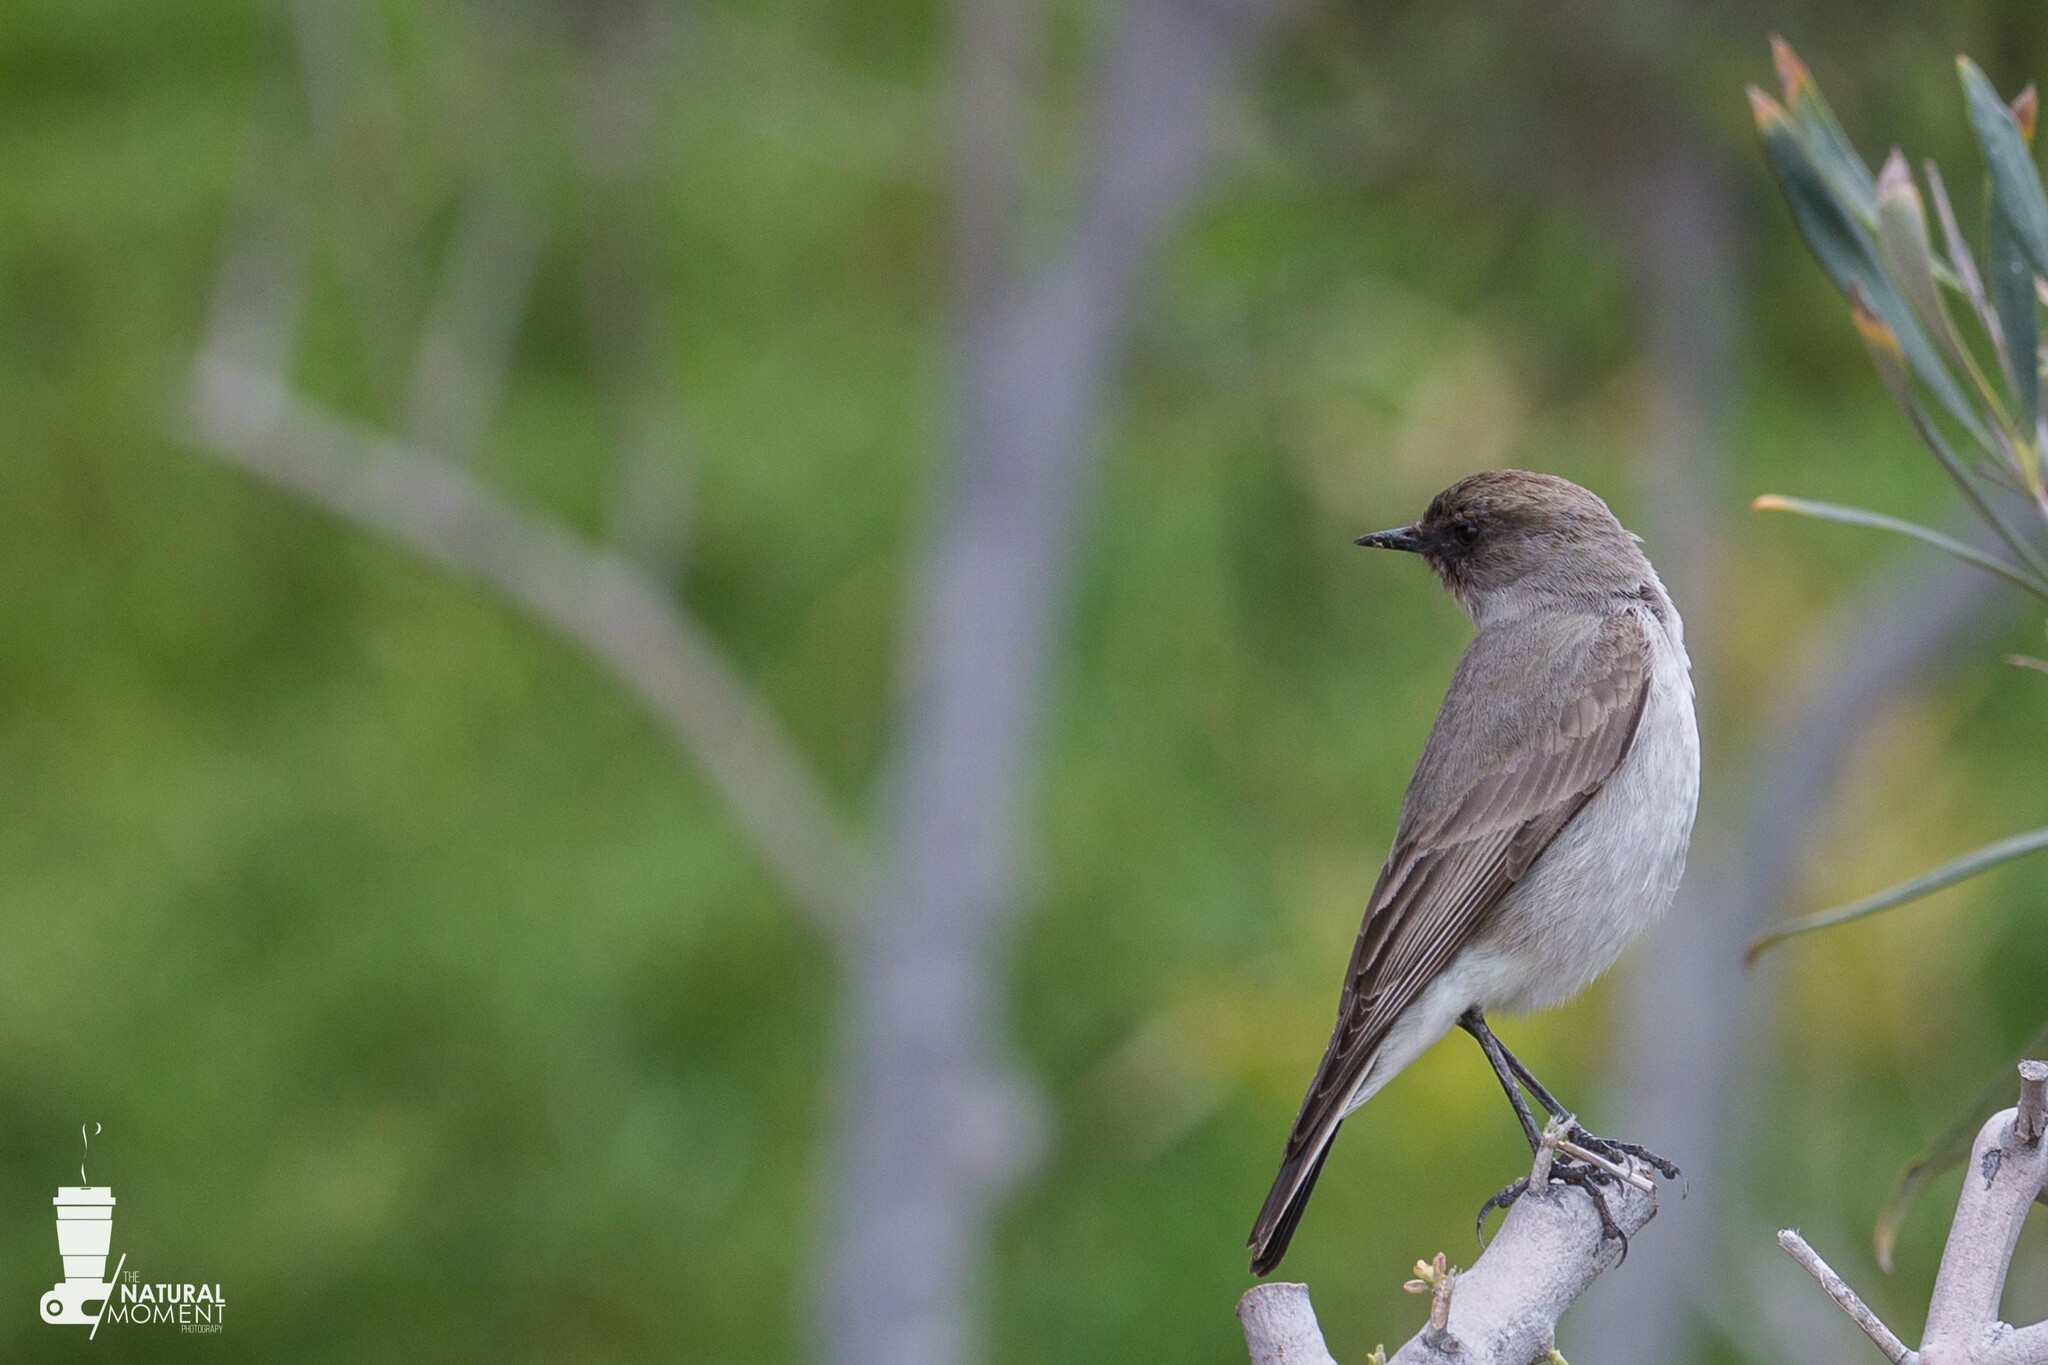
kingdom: Animalia
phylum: Chordata
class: Aves
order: Passeriformes
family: Tyrannidae
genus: Muscisaxicola
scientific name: Muscisaxicola maclovianus
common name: Dark-faced ground tyrant
